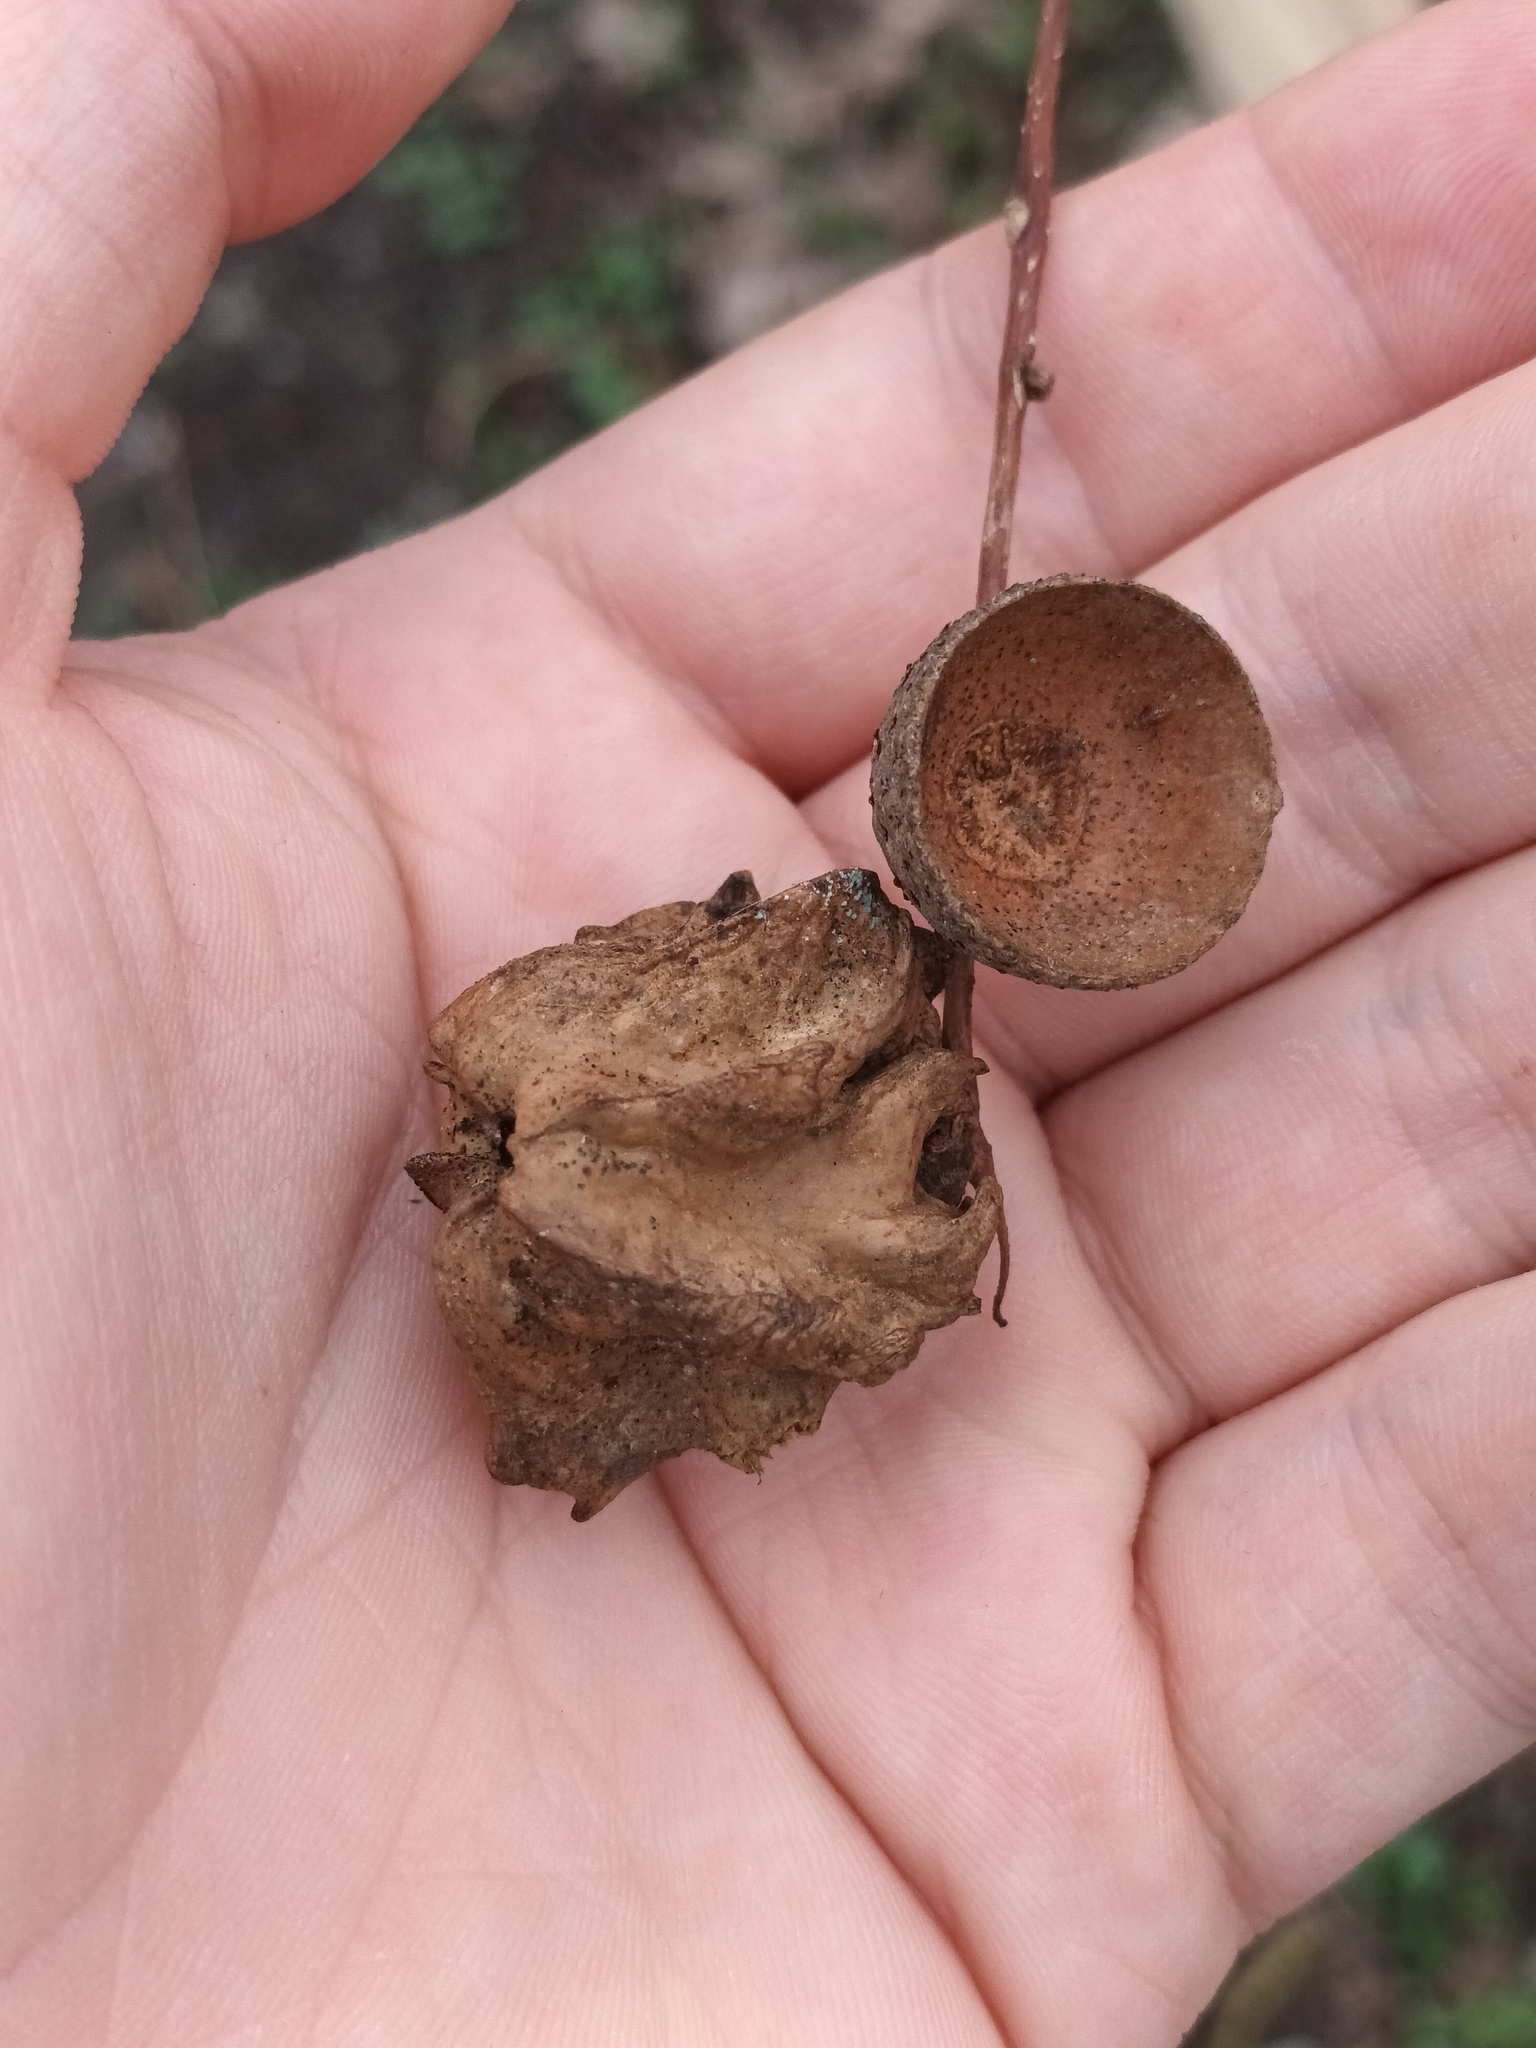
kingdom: Animalia
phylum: Arthropoda
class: Insecta
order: Hymenoptera
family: Cynipidae
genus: Andricus
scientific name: Andricus quercuscalicis
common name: Knopper gall
